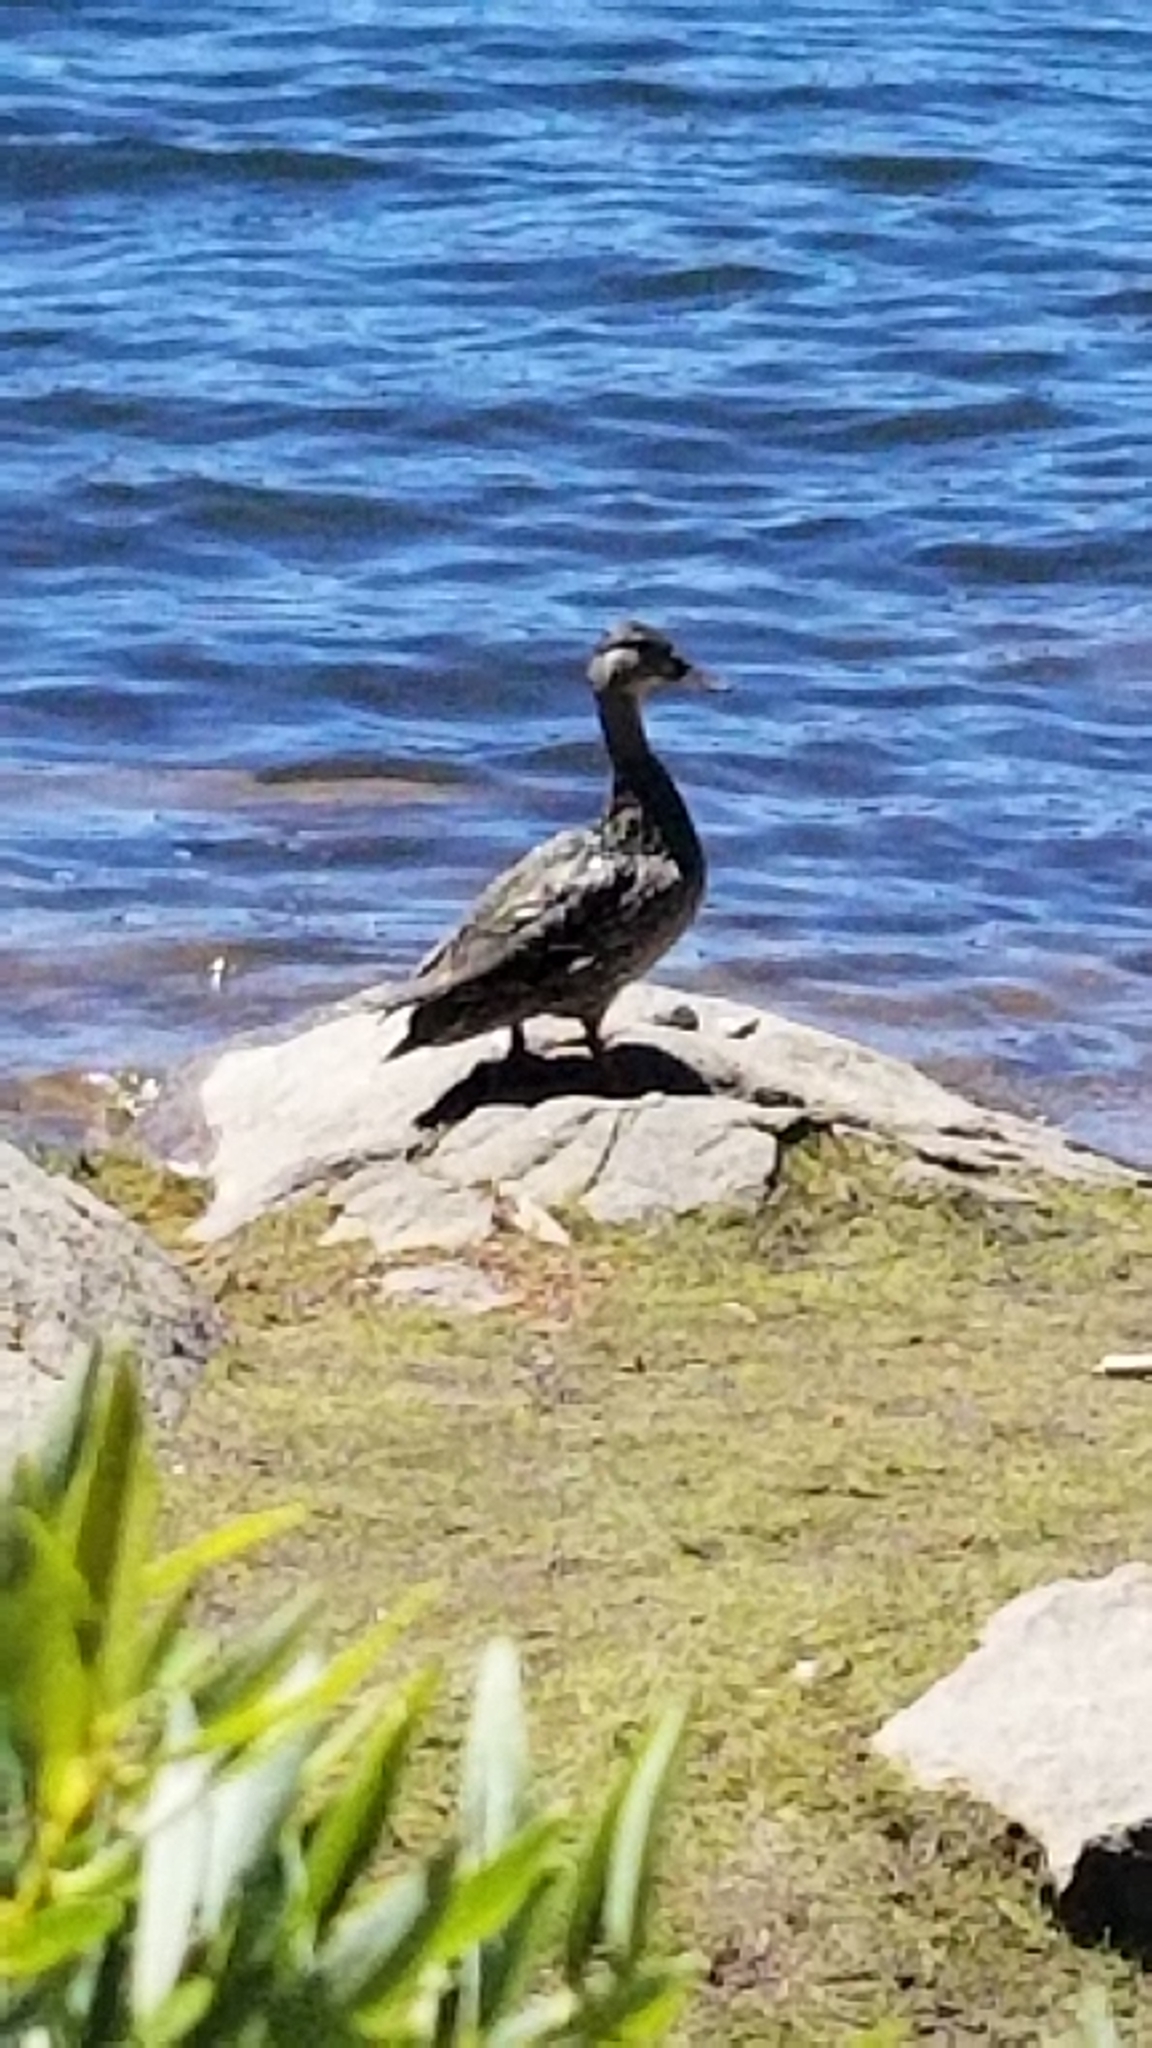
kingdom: Animalia
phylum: Chordata
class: Aves
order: Anseriformes
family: Anatidae
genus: Anas
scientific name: Anas platyrhynchos
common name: Mallard
